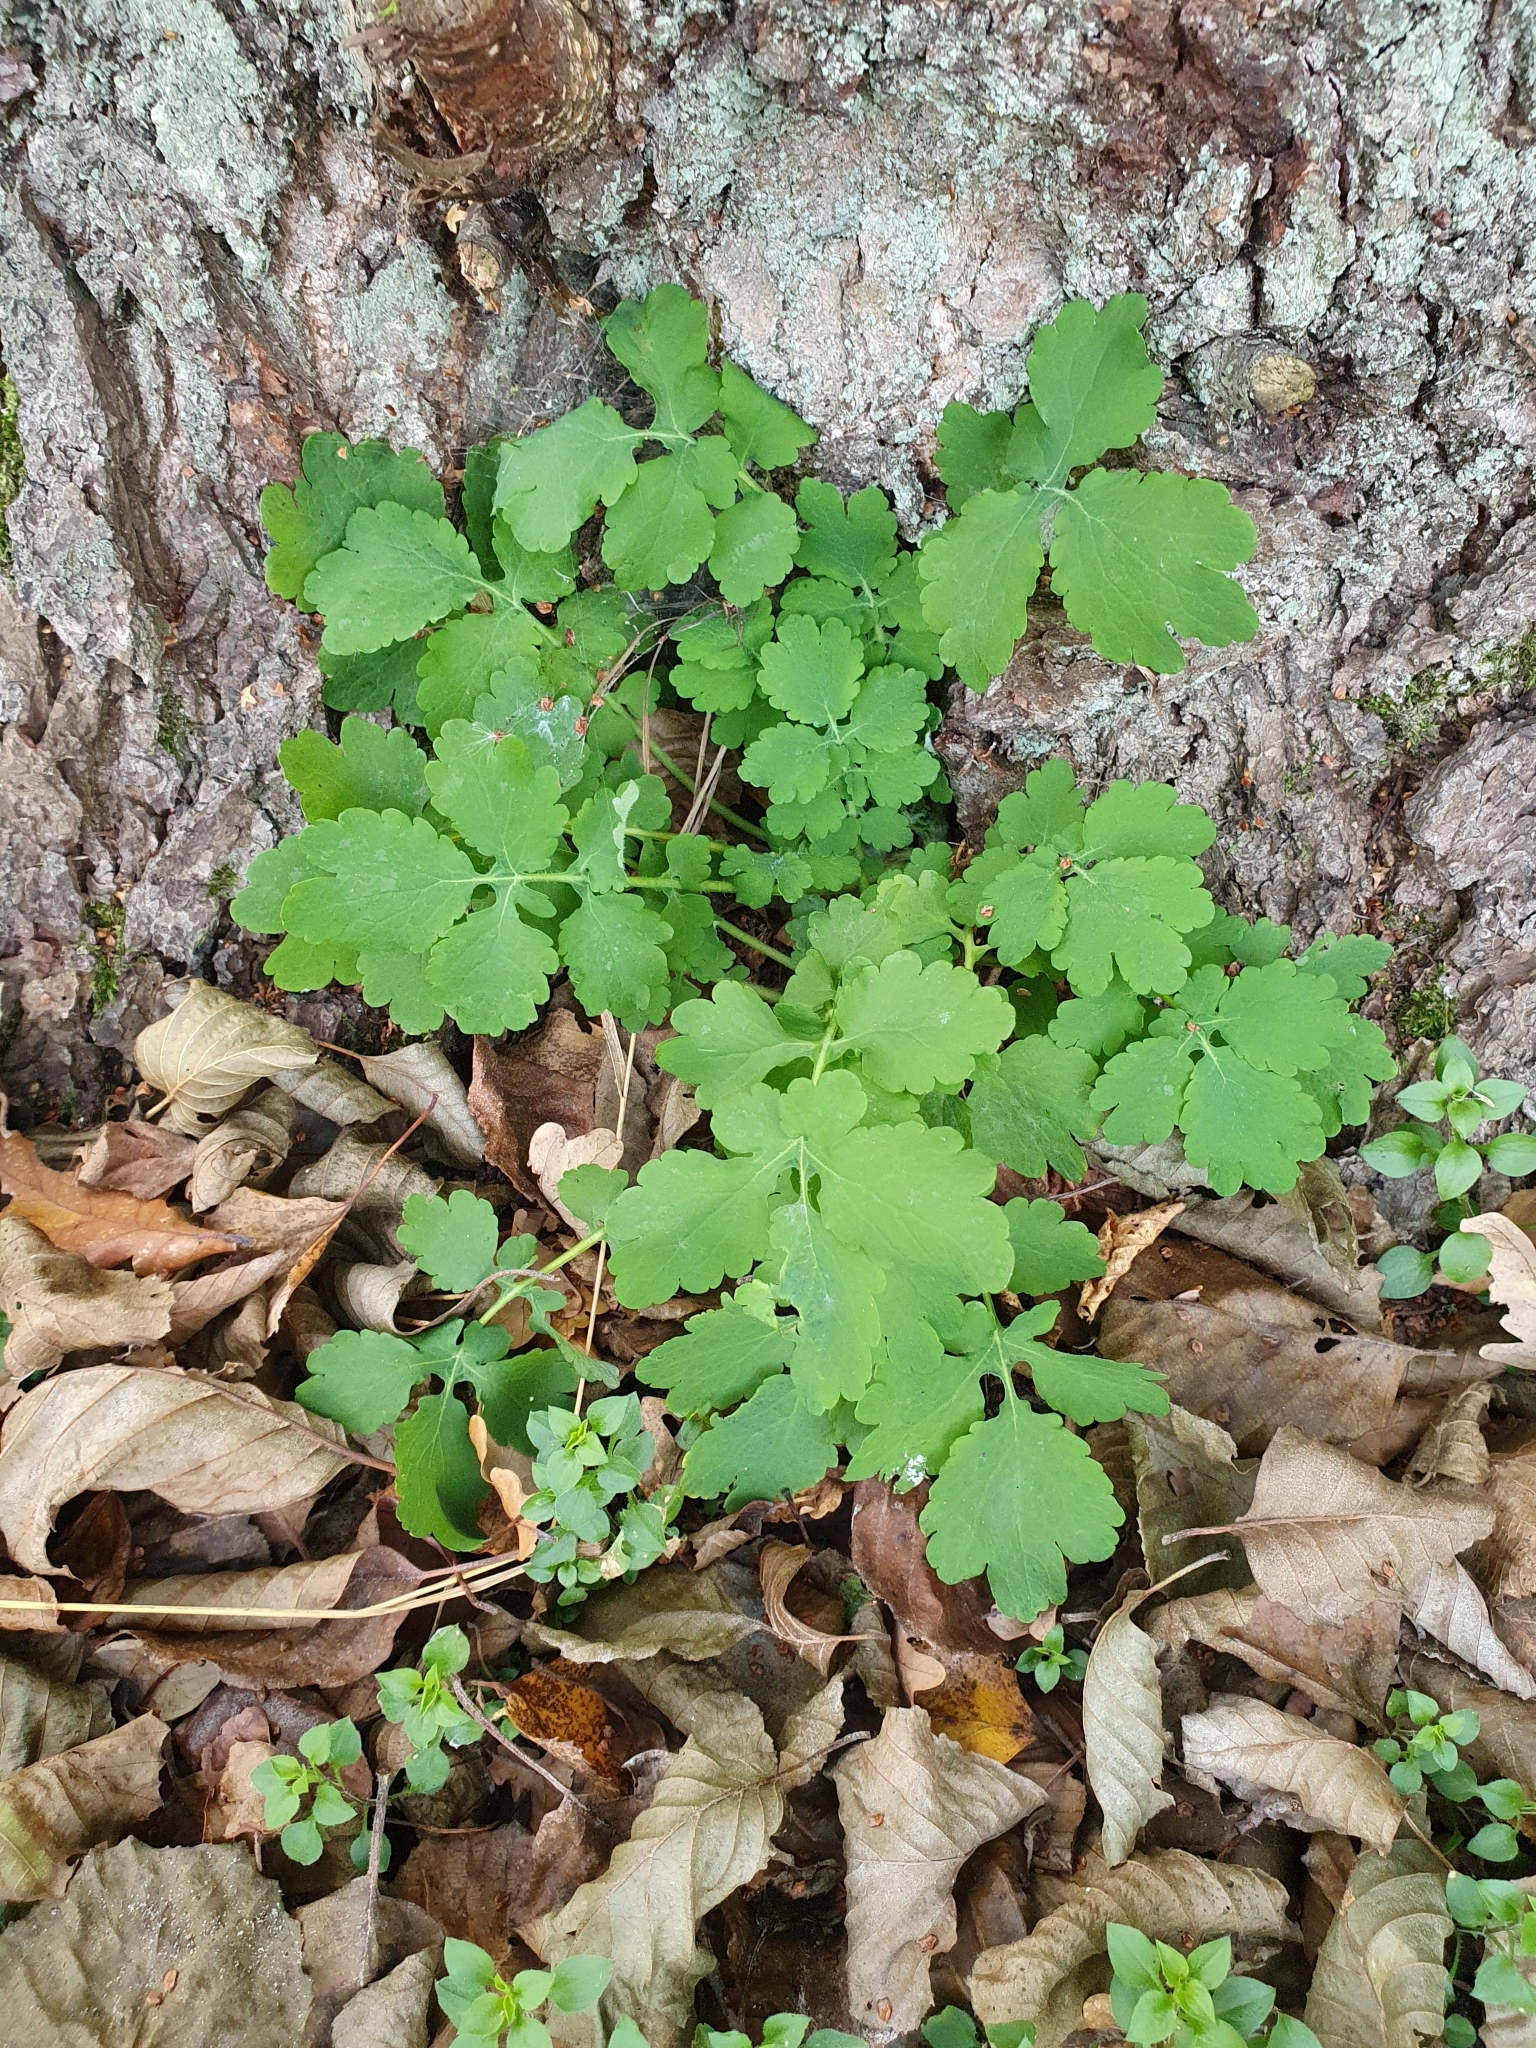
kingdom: Plantae
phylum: Tracheophyta
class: Magnoliopsida
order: Ranunculales
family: Papaveraceae
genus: Chelidonium
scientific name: Chelidonium majus
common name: Greater celandine
